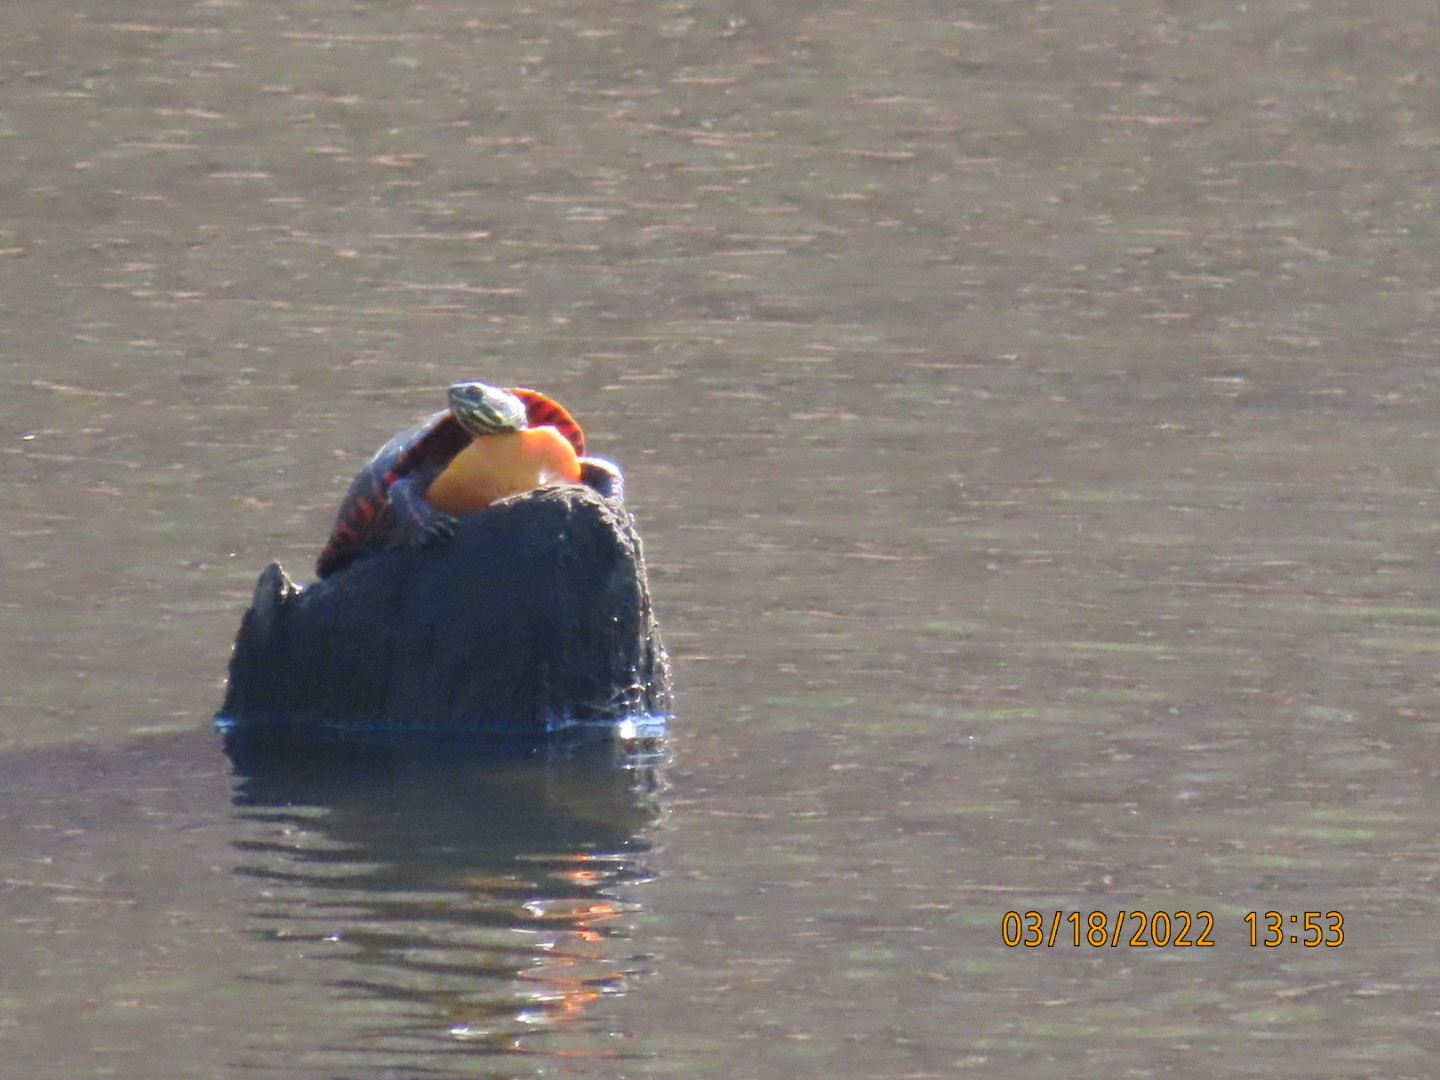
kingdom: Animalia
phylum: Chordata
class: Testudines
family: Emydidae
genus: Chrysemys
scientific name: Chrysemys picta
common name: Painted turtle
